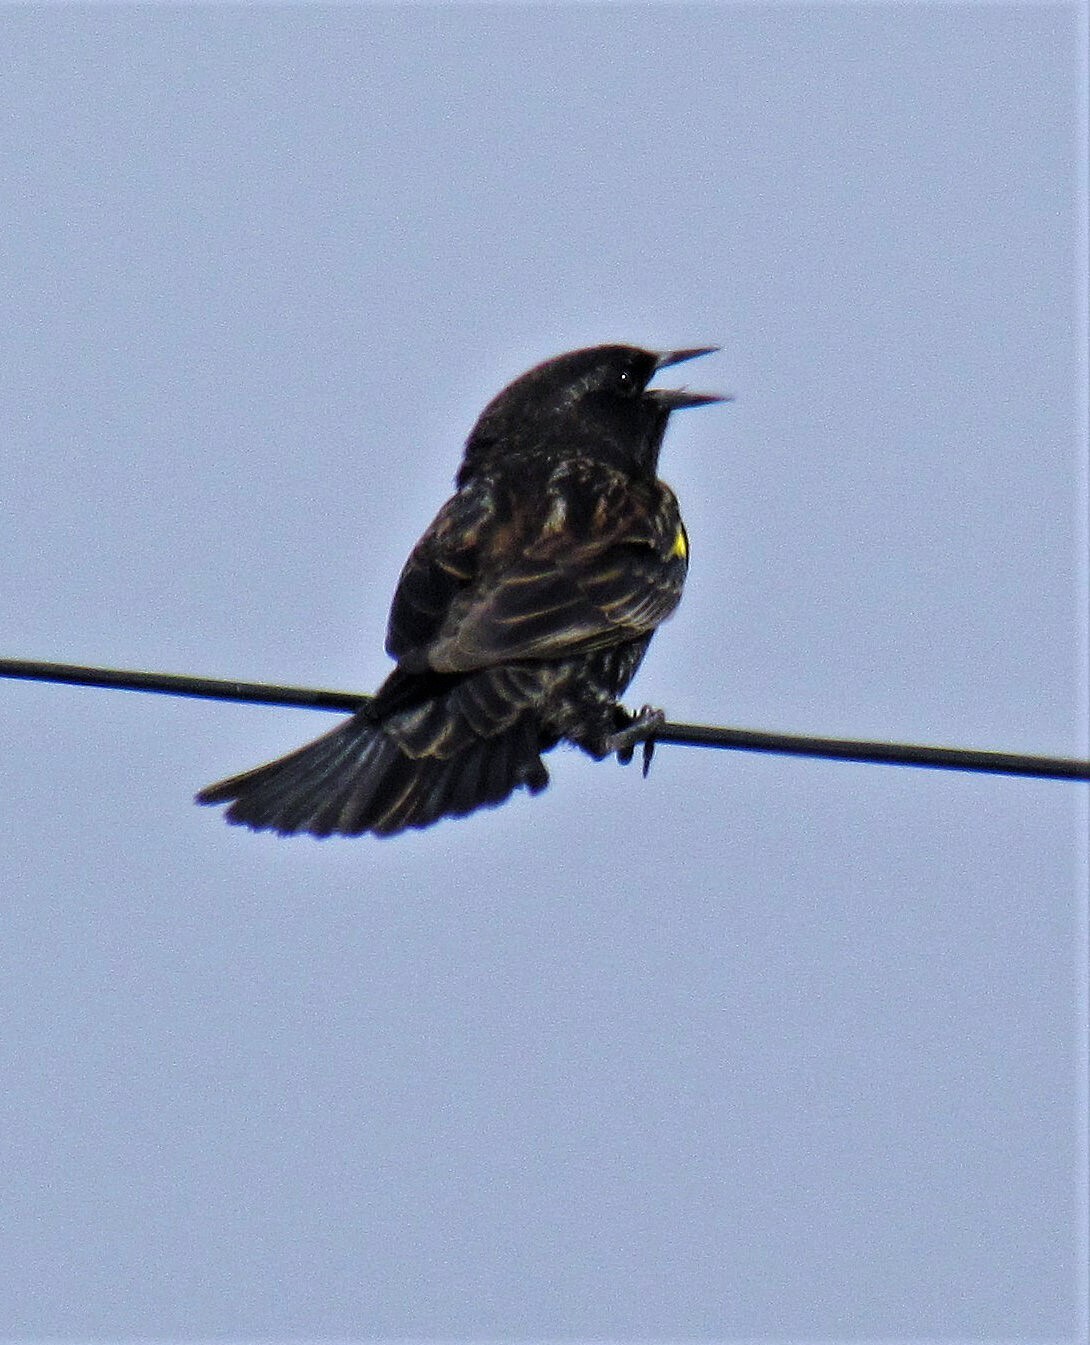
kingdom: Animalia
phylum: Chordata
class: Aves
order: Passeriformes
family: Icteridae
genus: Agelasticus
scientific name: Agelasticus thilius
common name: Yellow-winged blackbird
